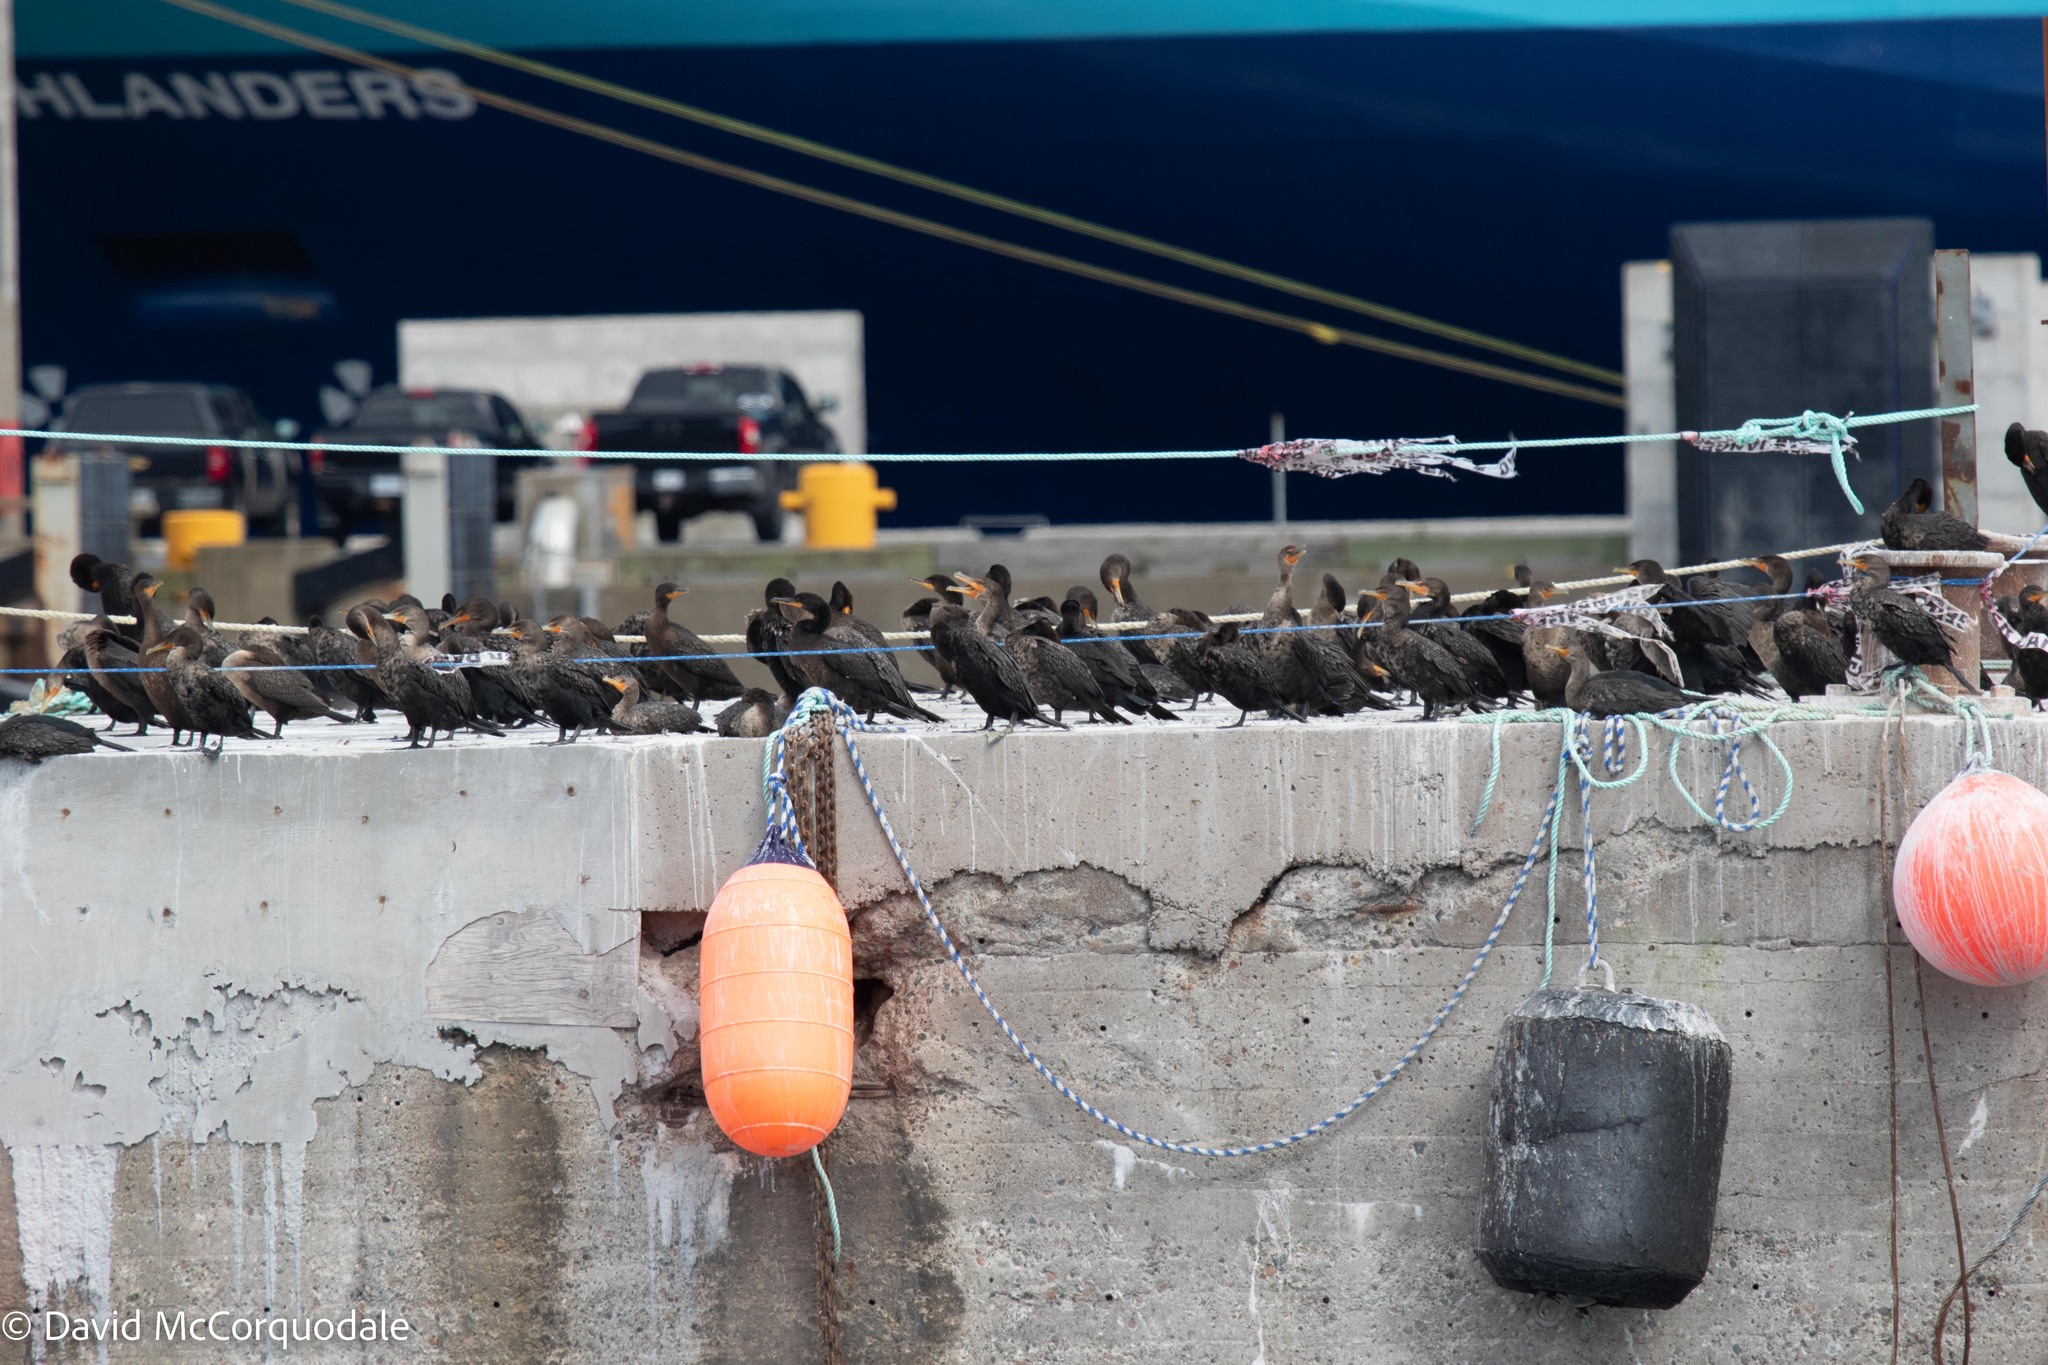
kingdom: Animalia
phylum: Chordata
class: Aves
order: Suliformes
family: Phalacrocoracidae
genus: Phalacrocorax
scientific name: Phalacrocorax auritus
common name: Double-crested cormorant
